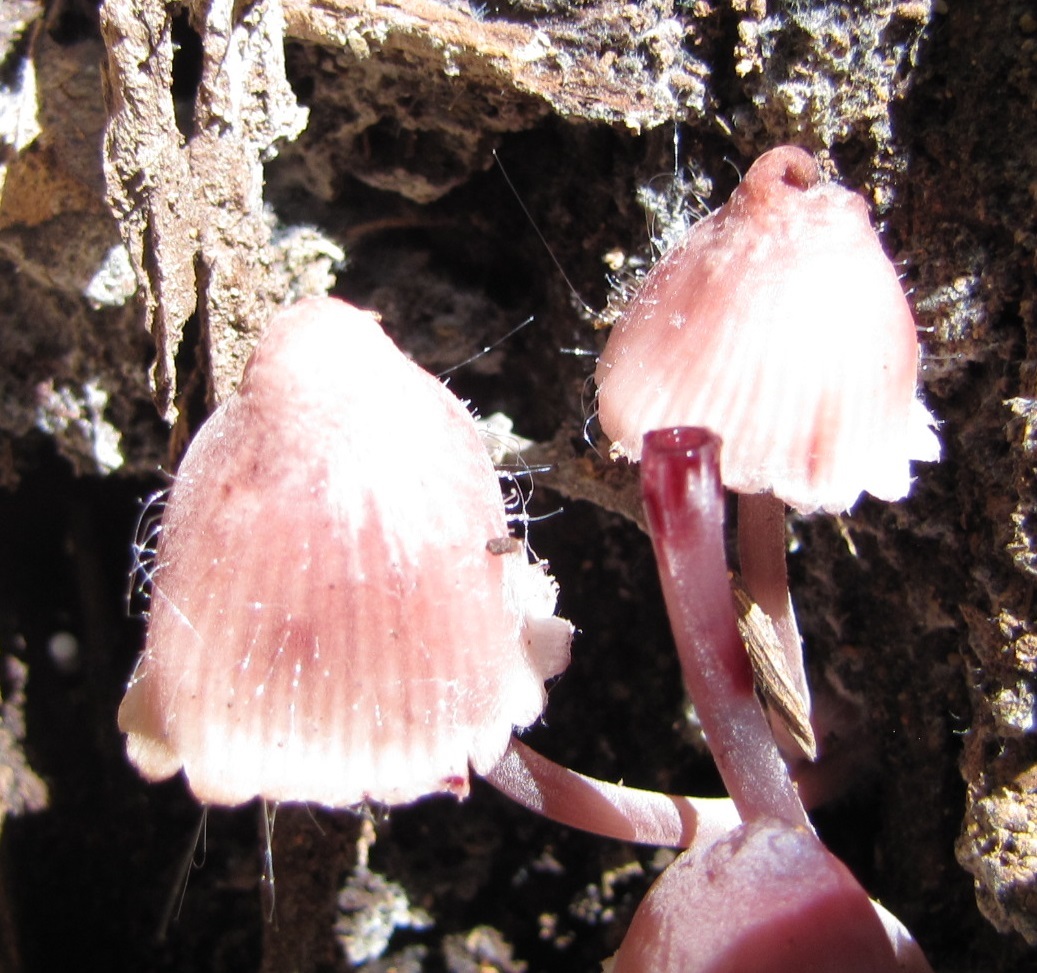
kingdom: Fungi
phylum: Mucoromycota
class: Mucoromycetes
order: Mucorales
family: Phycomycetaceae
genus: Spinellus
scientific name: Spinellus fusiger
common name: Bonnet mould
